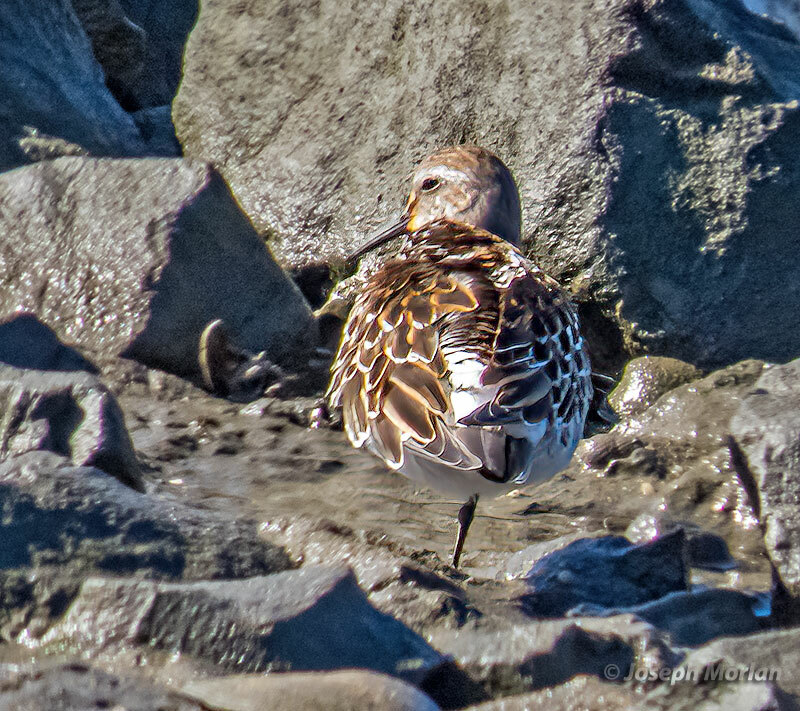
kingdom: Animalia
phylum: Chordata
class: Aves
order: Charadriiformes
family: Scolopacidae
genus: Calidris
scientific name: Calidris fuscicollis
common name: White-rumped sandpiper
